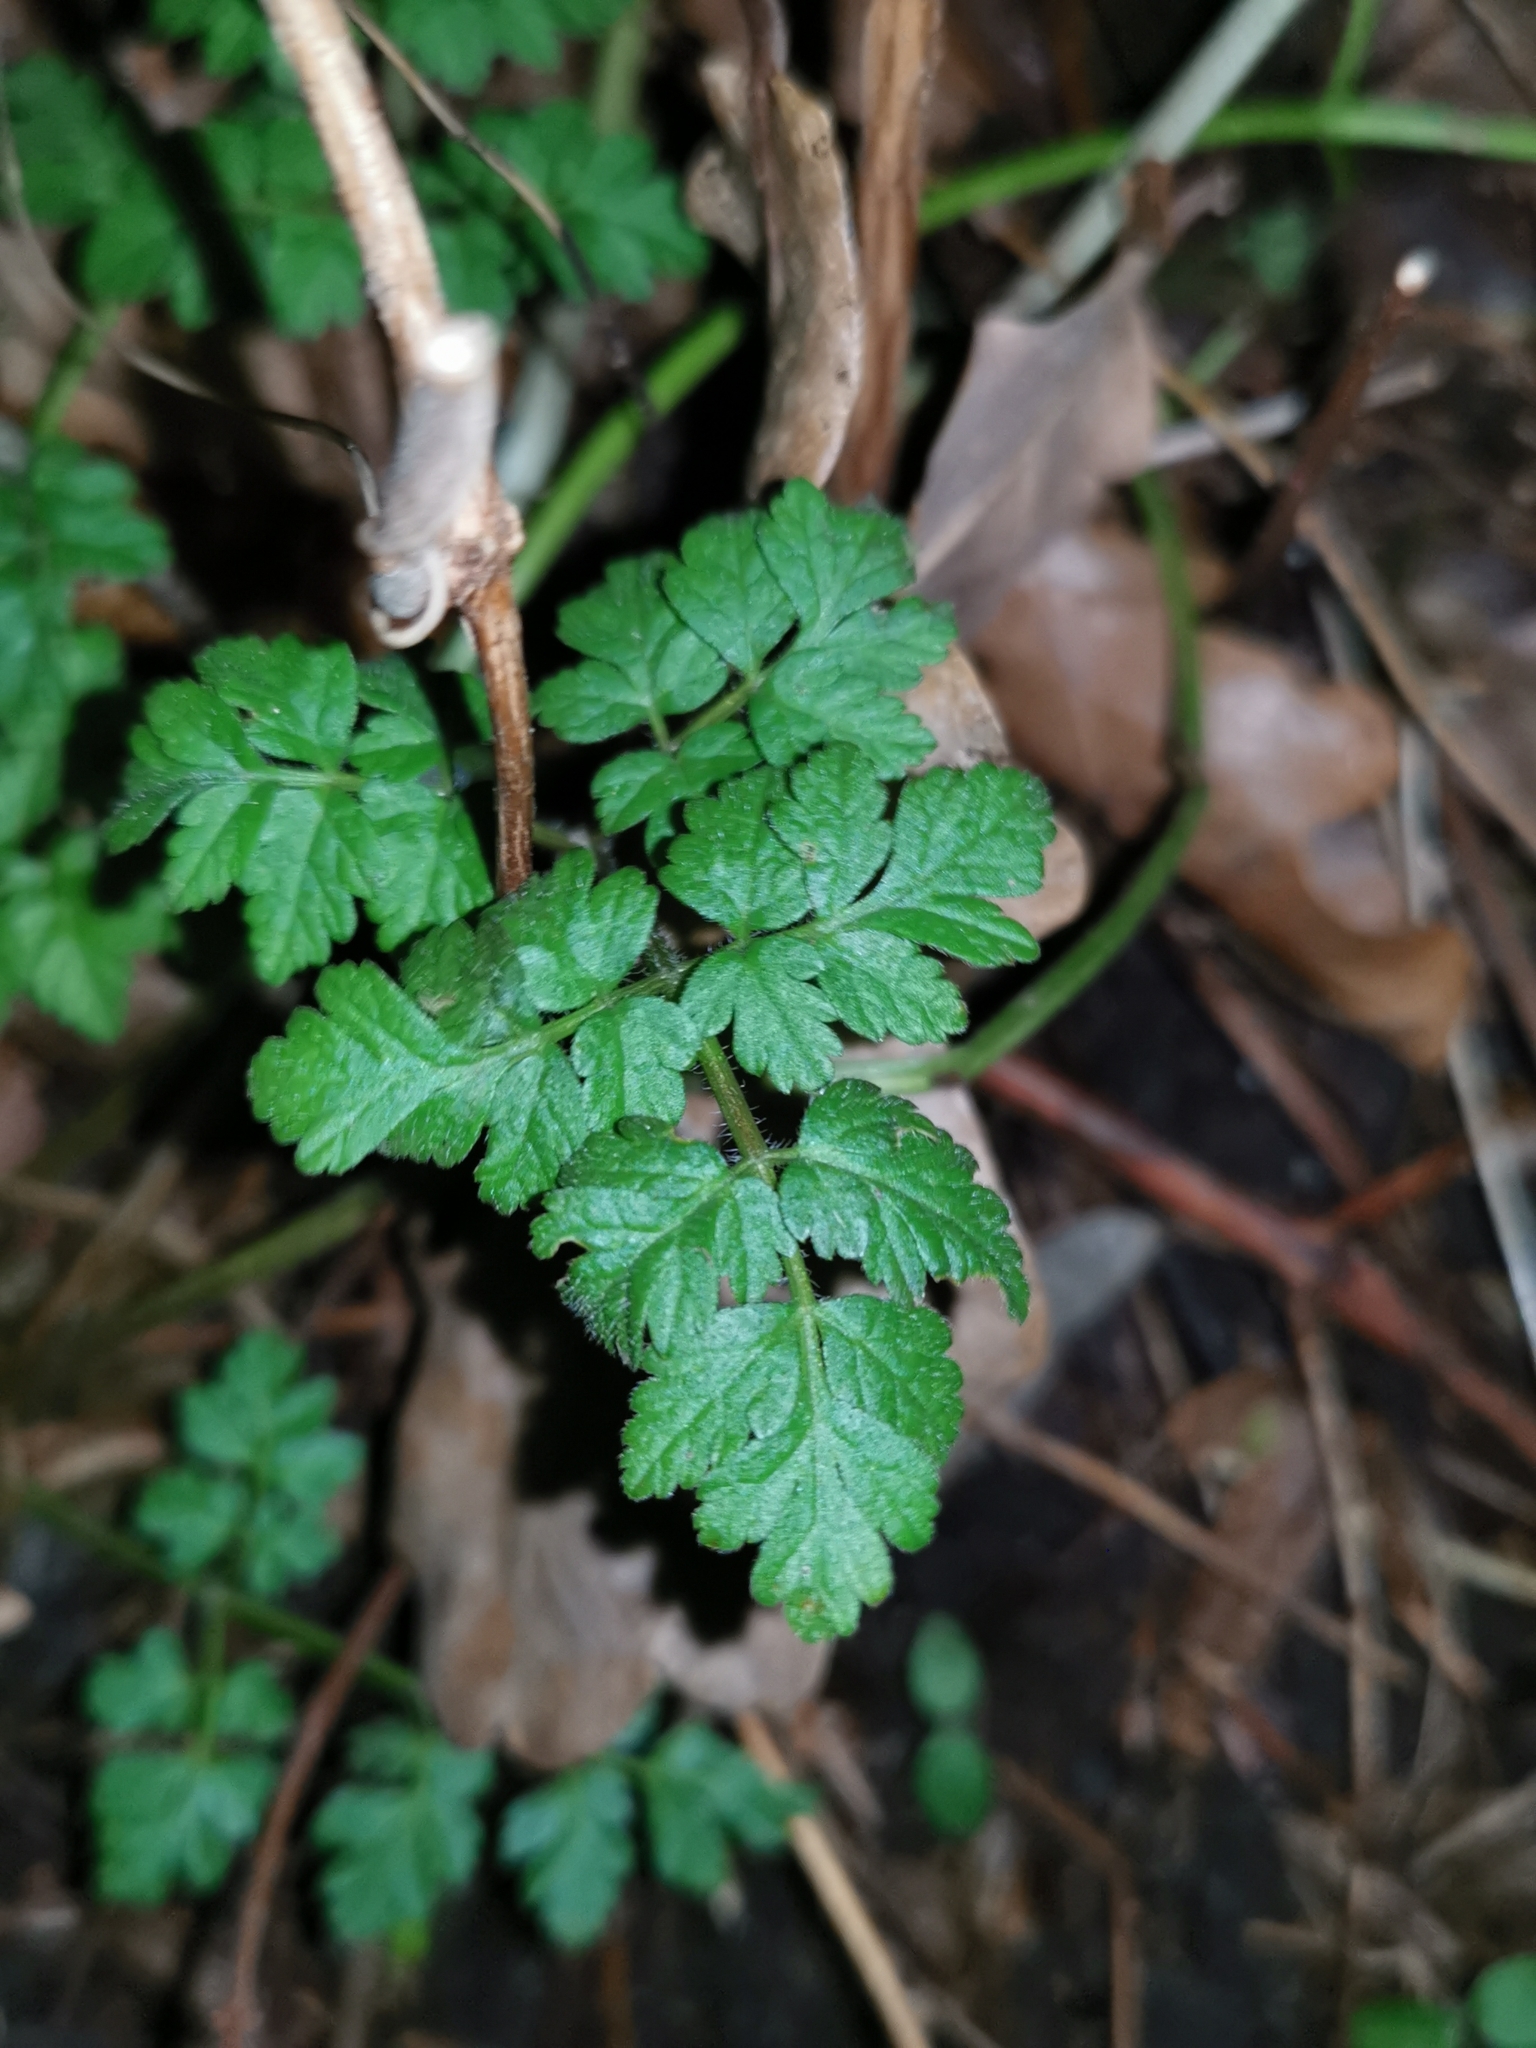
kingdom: Plantae
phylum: Tracheophyta
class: Magnoliopsida
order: Apiales
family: Apiaceae
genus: Chaerophyllum
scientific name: Chaerophyllum temulum
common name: Rough chervil
